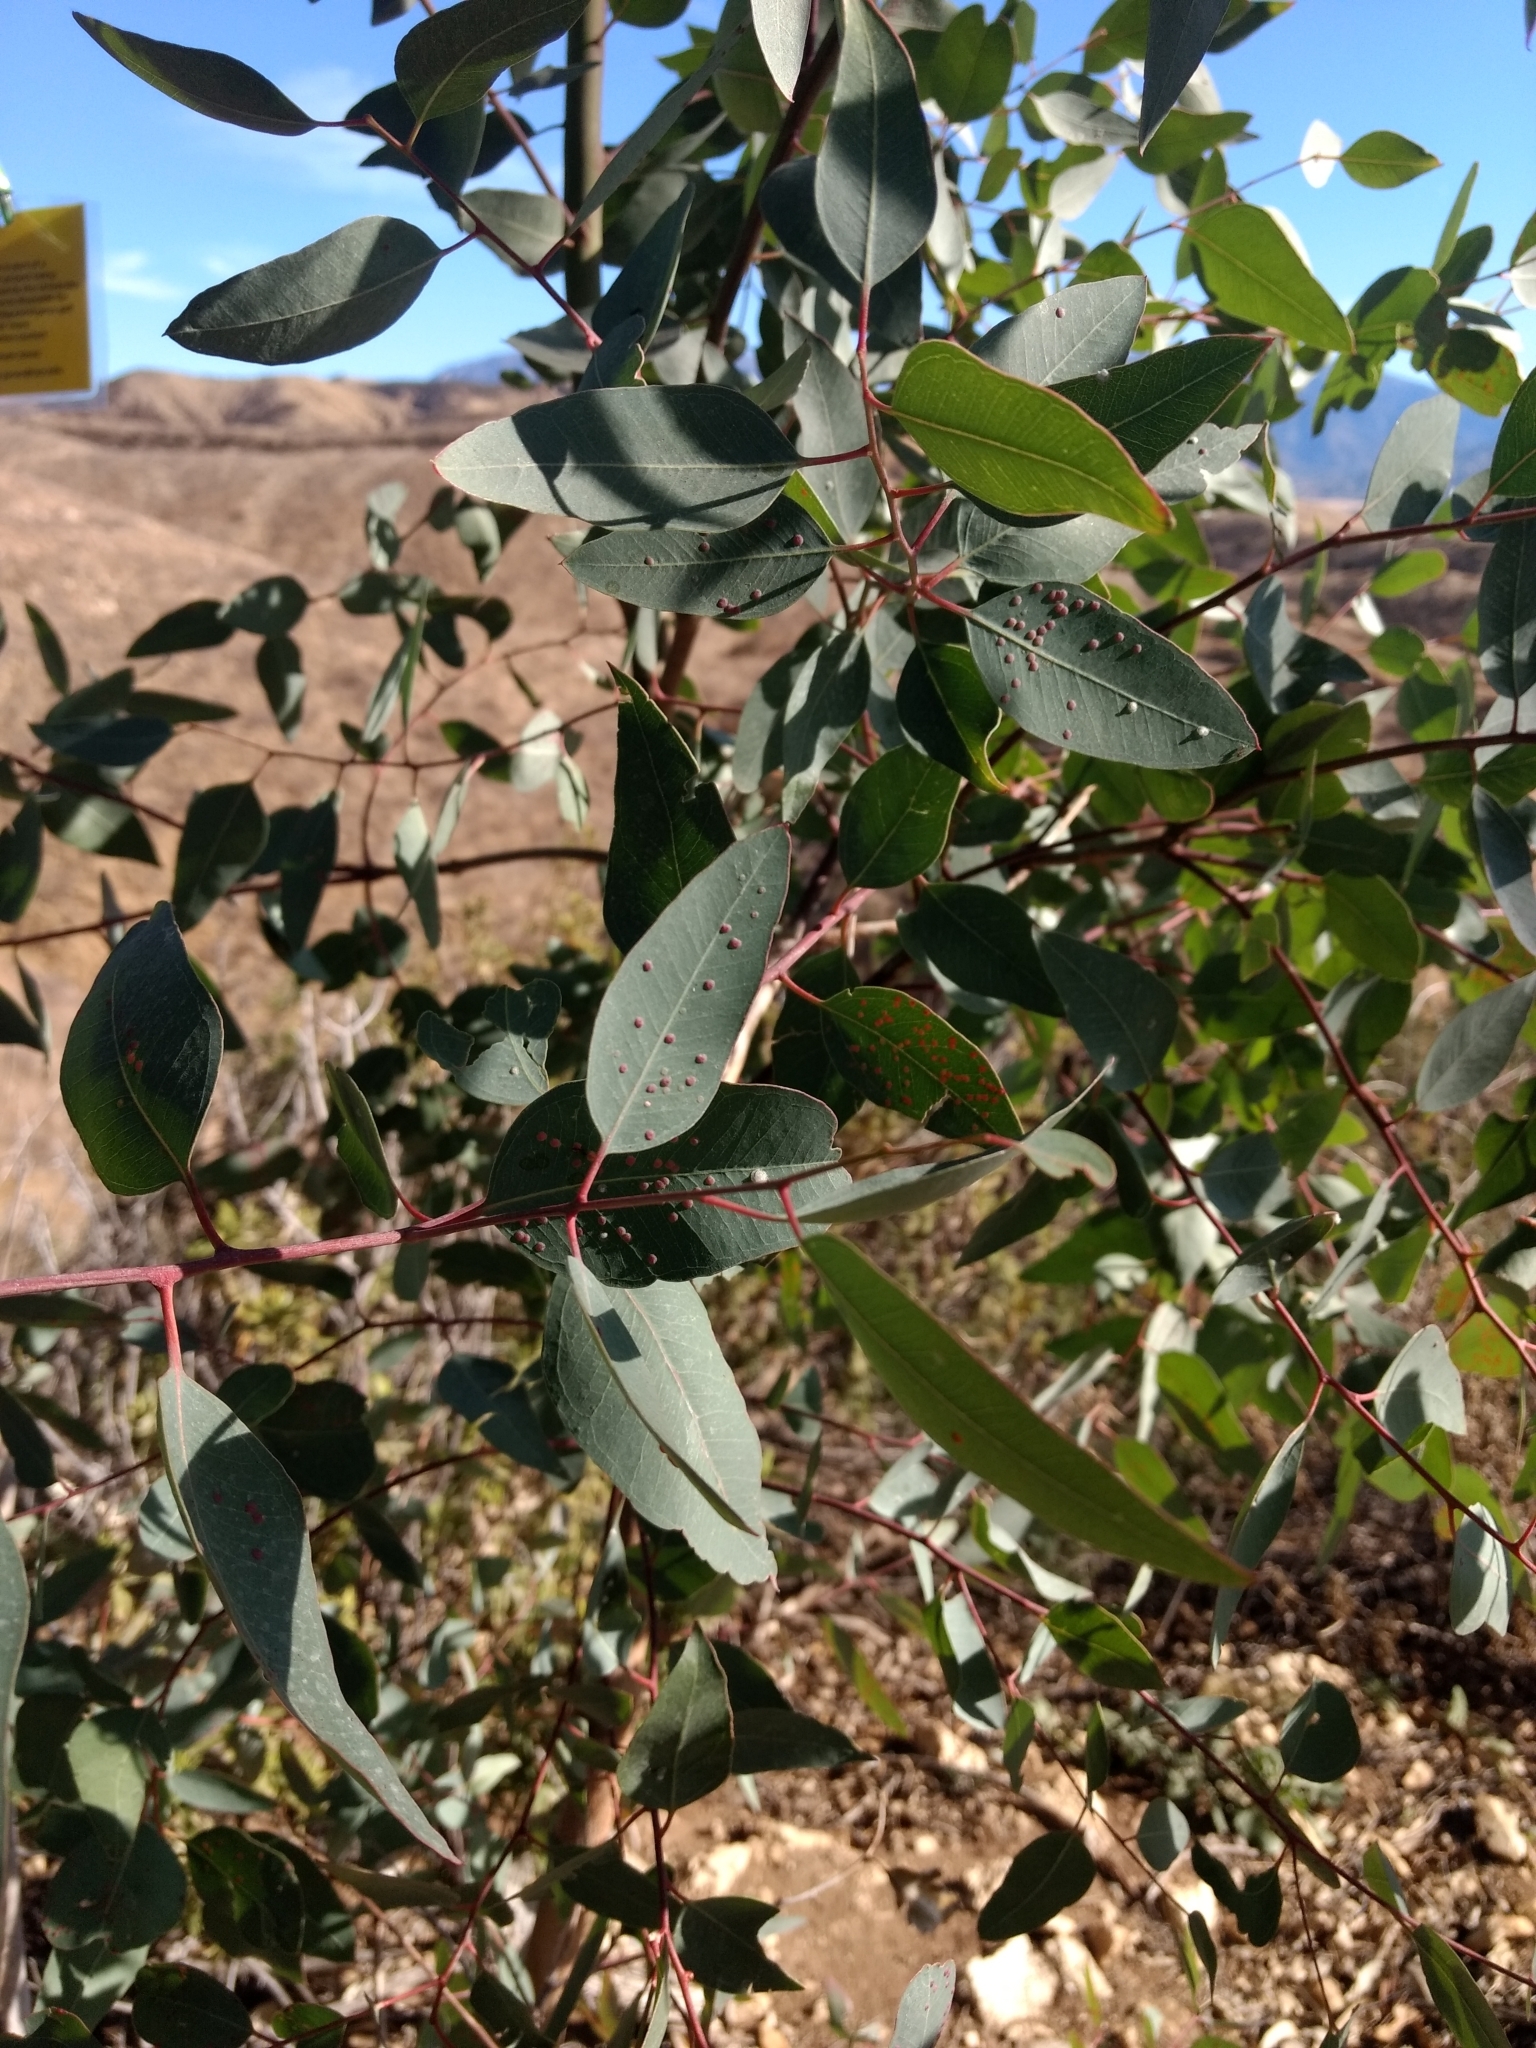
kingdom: Animalia
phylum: Arthropoda
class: Insecta
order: Hymenoptera
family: Eulophidae
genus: Ophelimus
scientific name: Ophelimus maskelli
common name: Gall wasp
